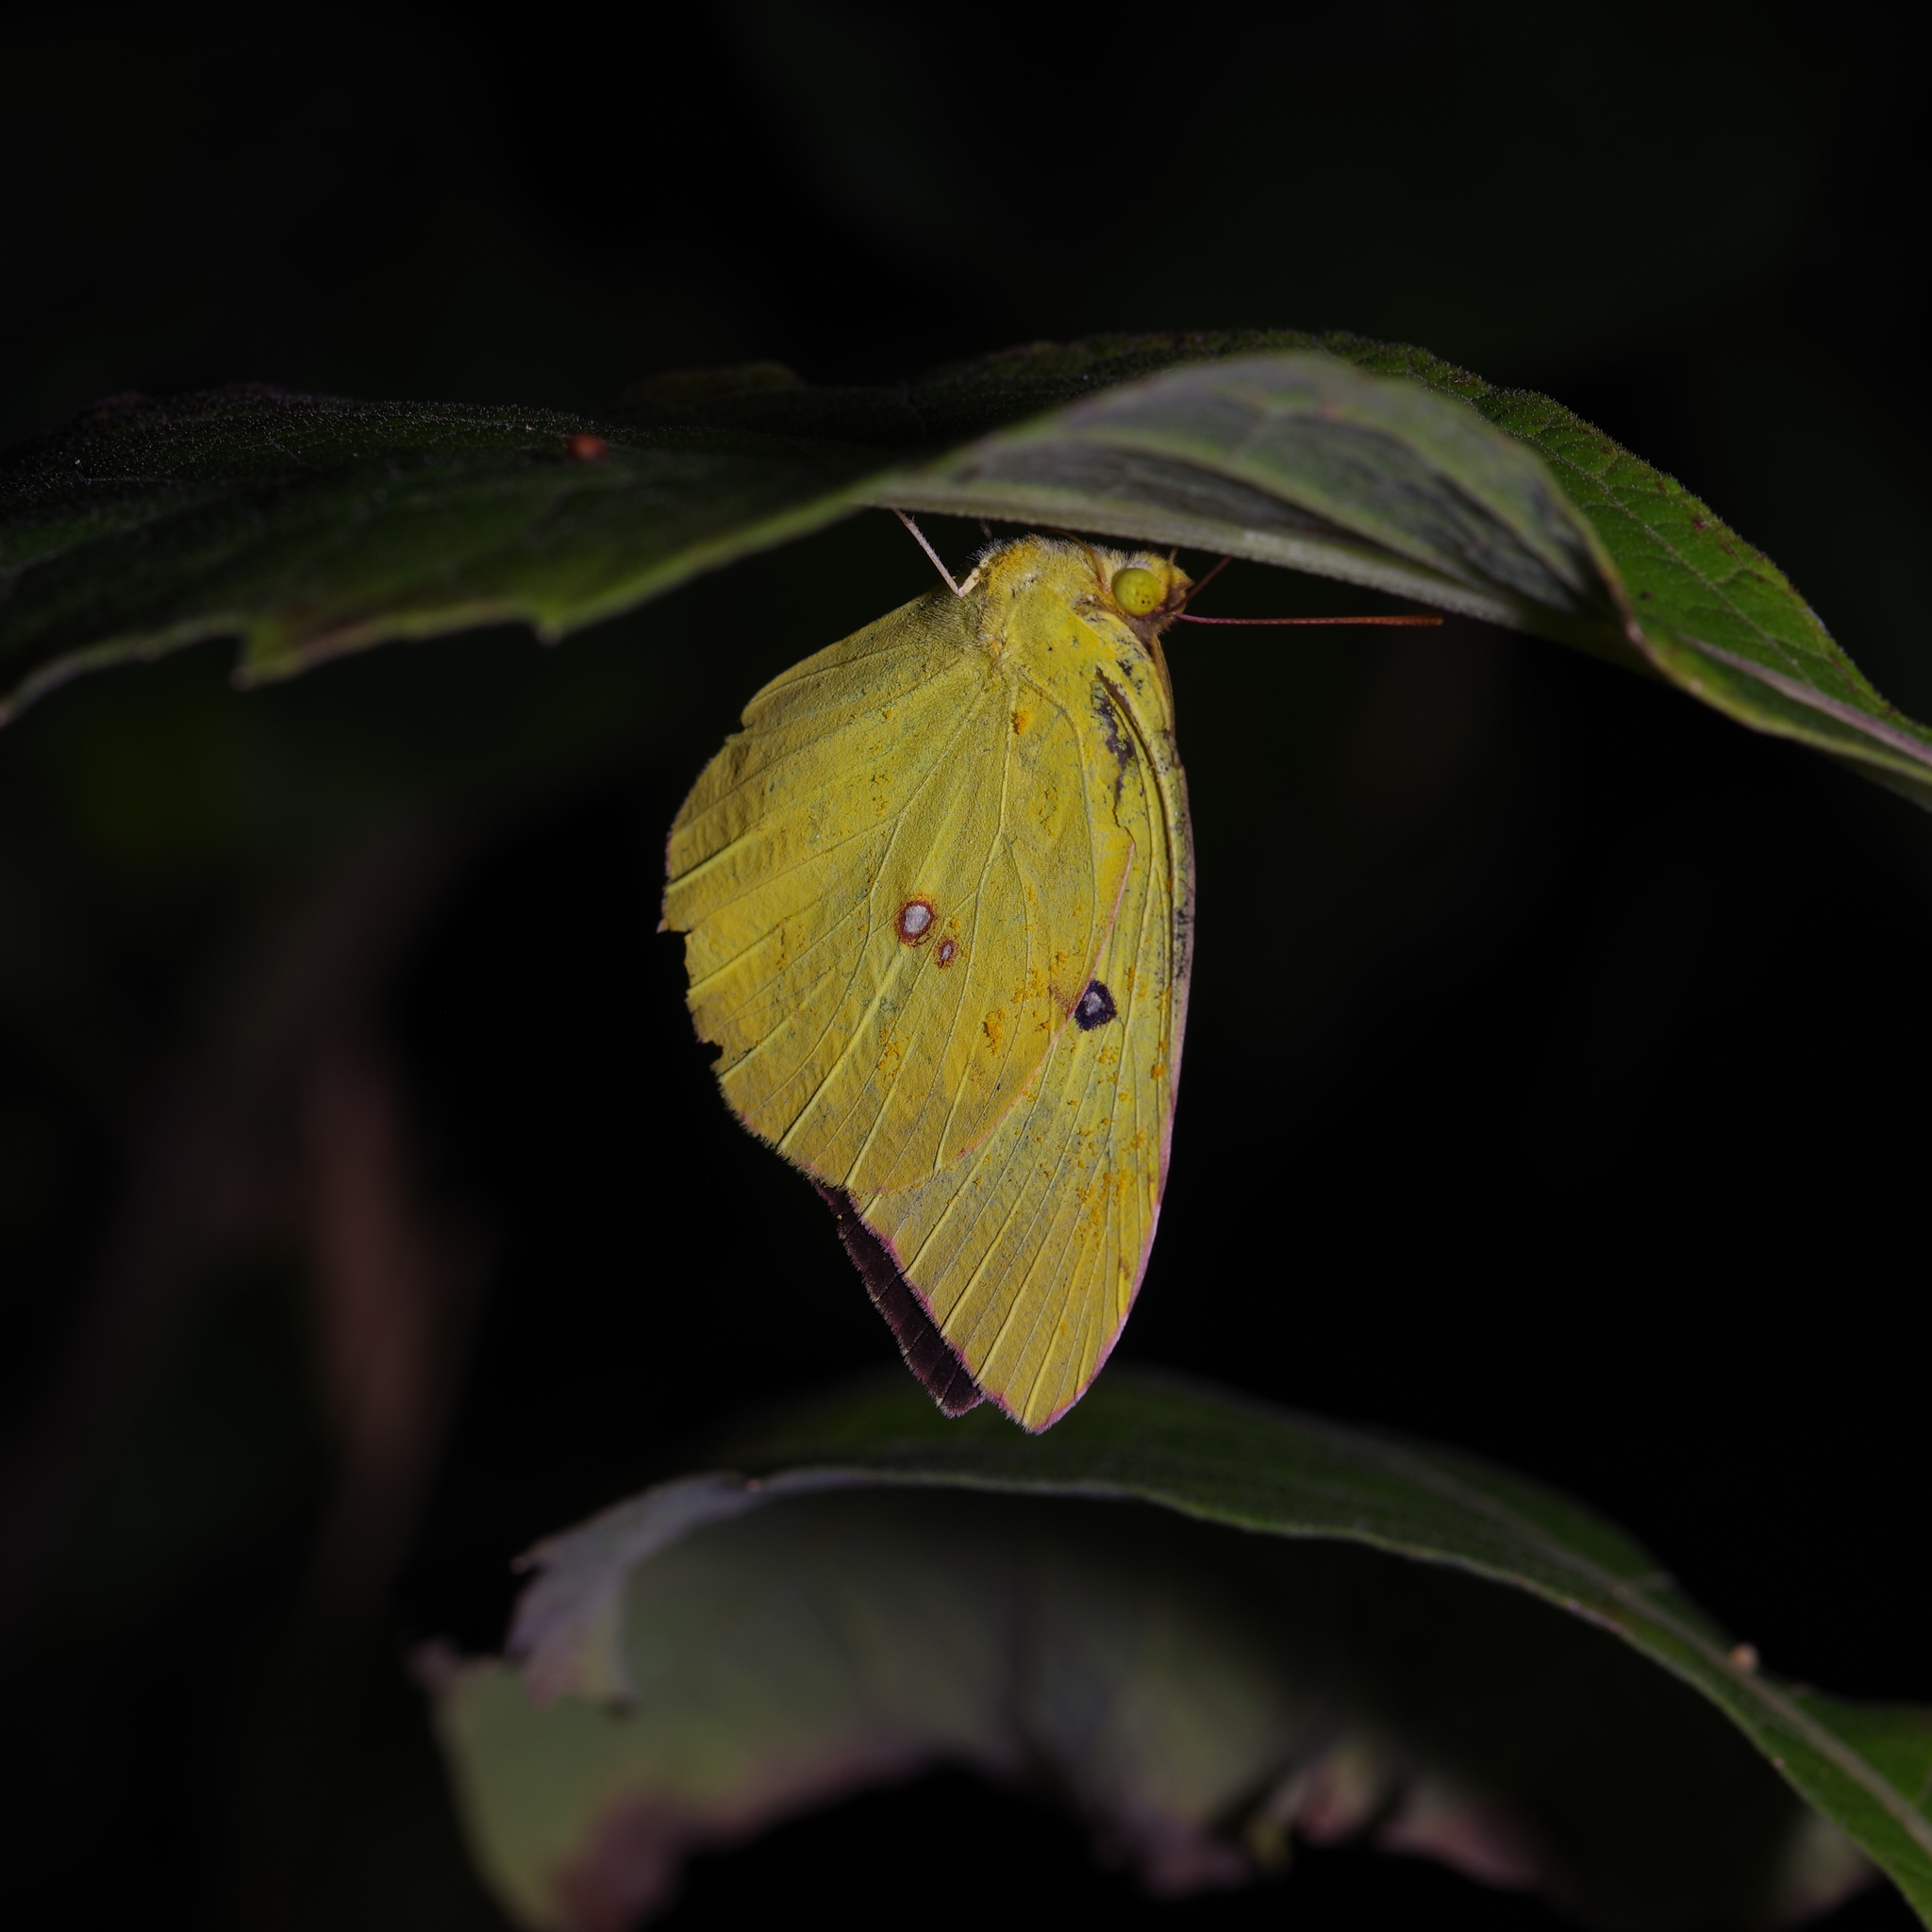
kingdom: Animalia
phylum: Arthropoda
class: Insecta
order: Lepidoptera
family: Pieridae
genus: Zerene
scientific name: Zerene cesonia
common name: Southern dogface
